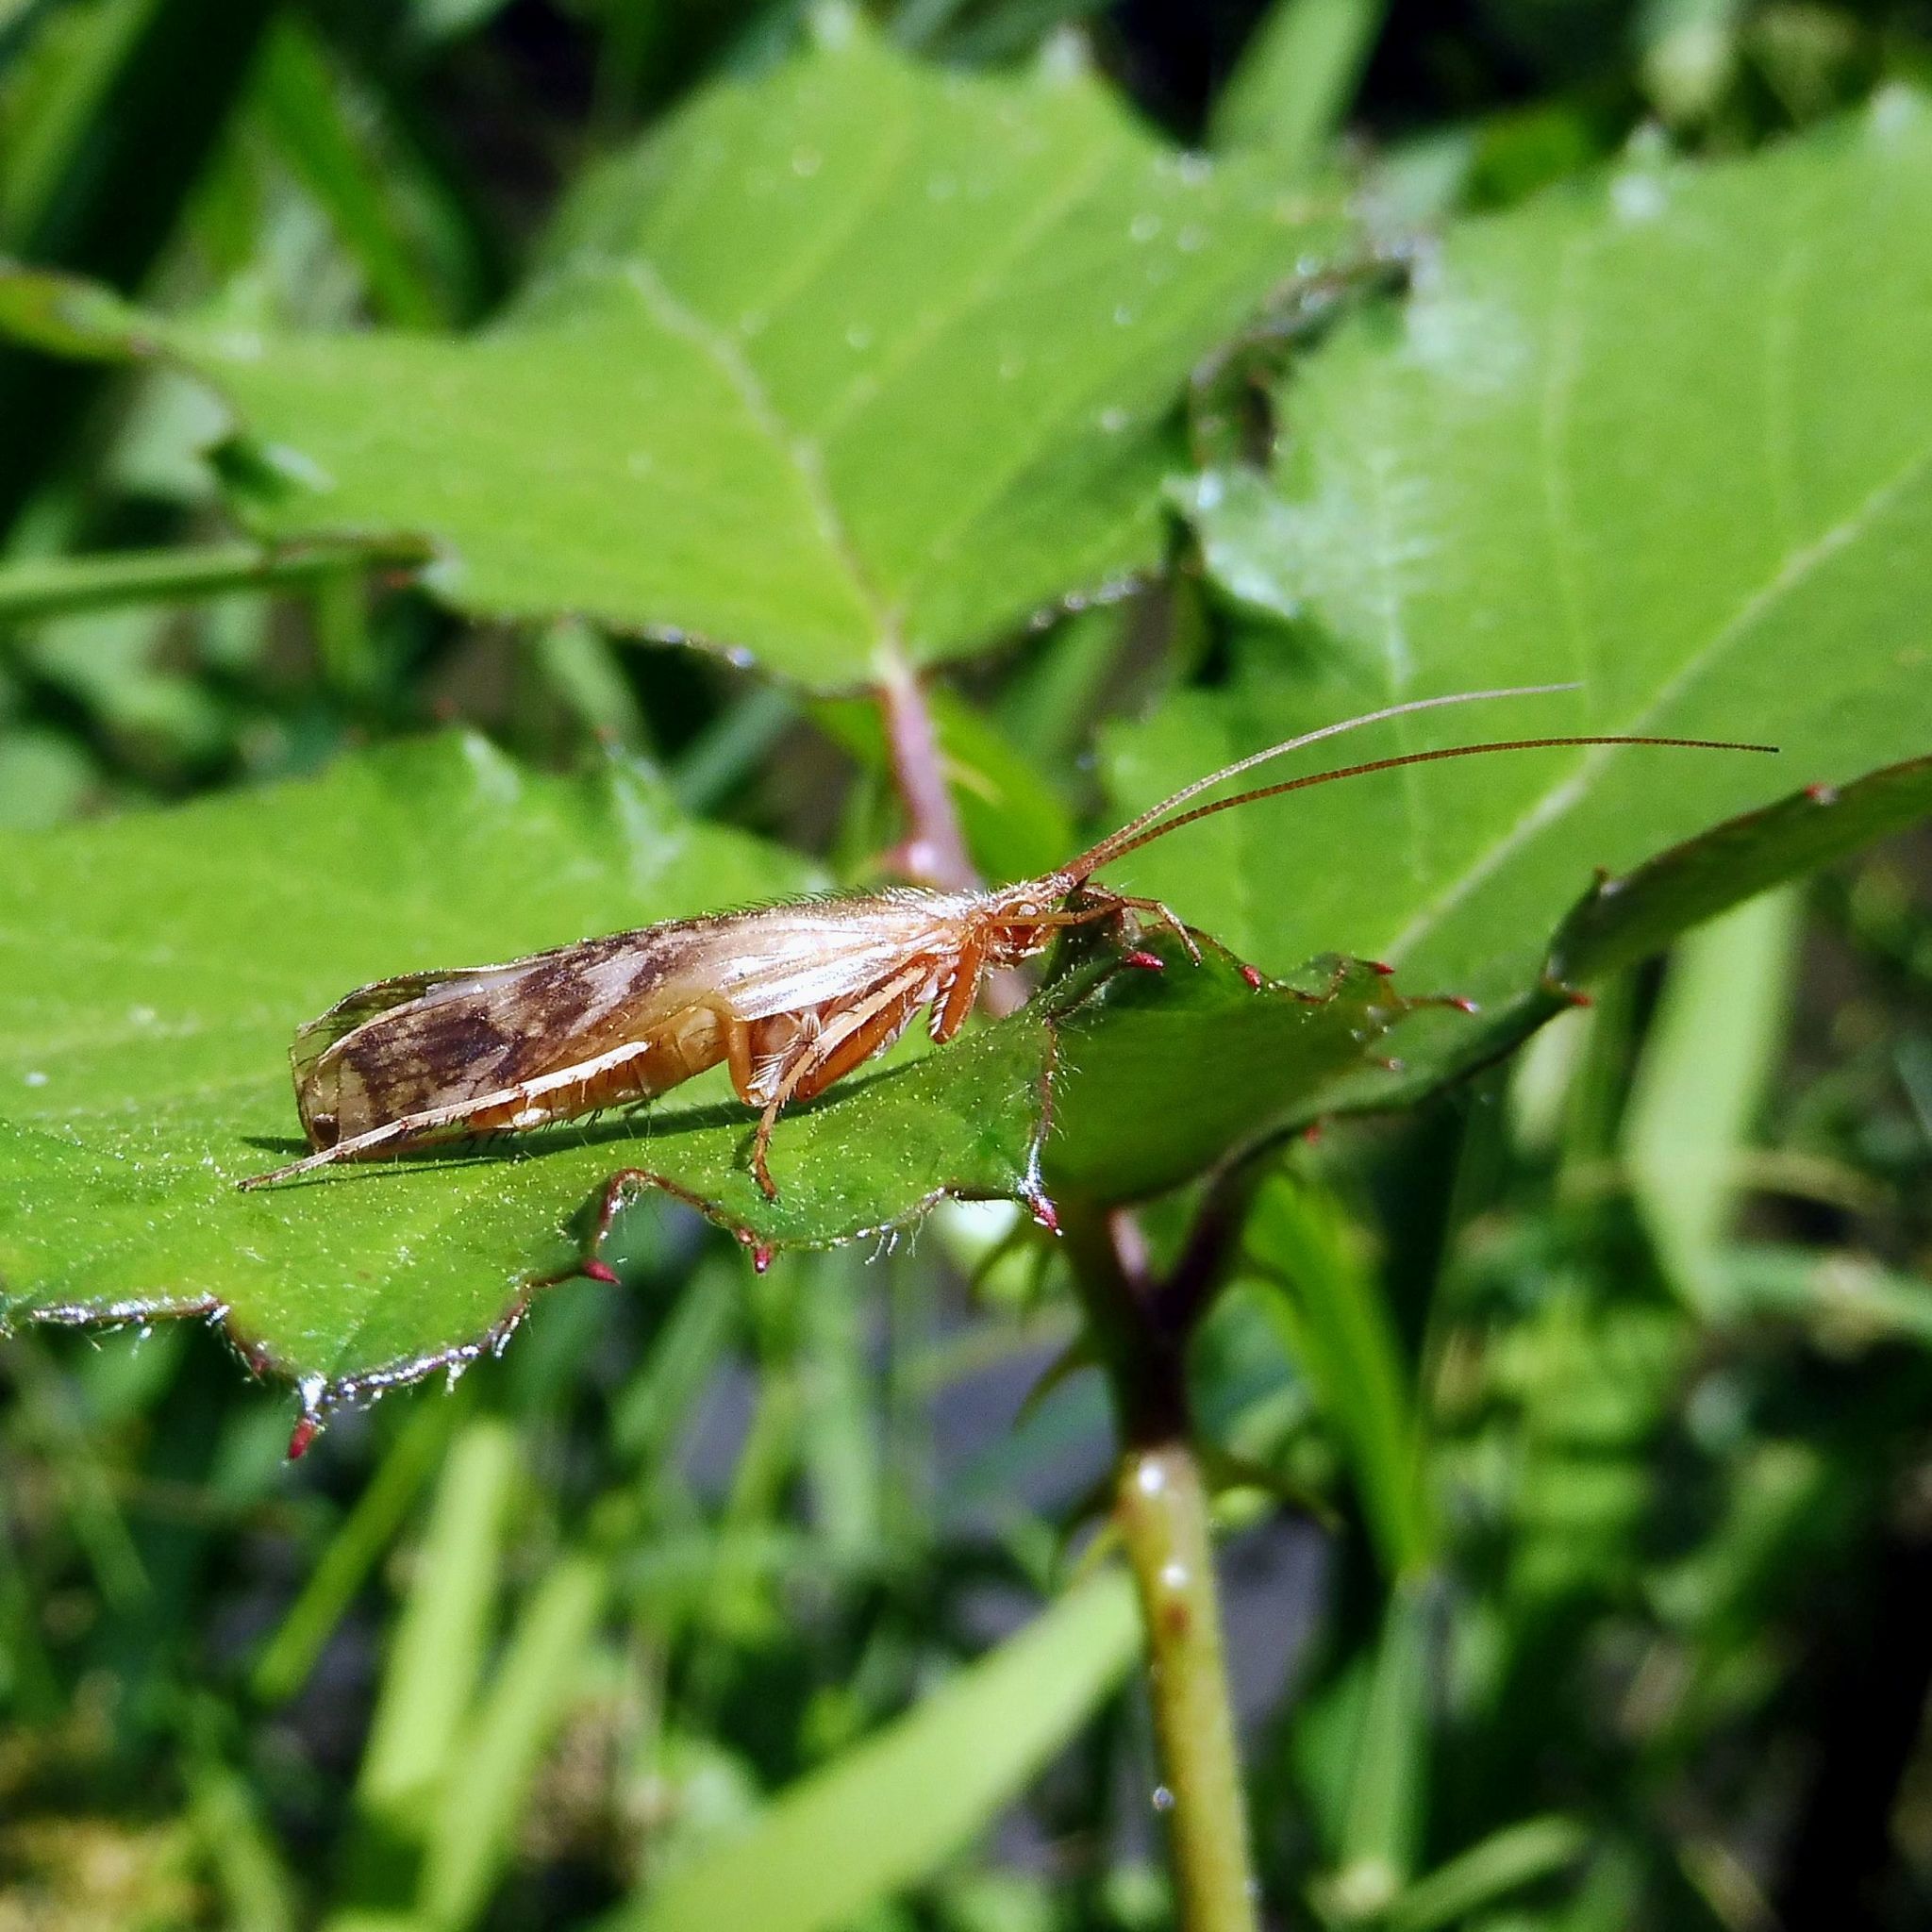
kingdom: Animalia
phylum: Arthropoda
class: Insecta
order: Trichoptera
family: Limnephilidae
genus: Limnephilus
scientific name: Limnephilus lunatus
